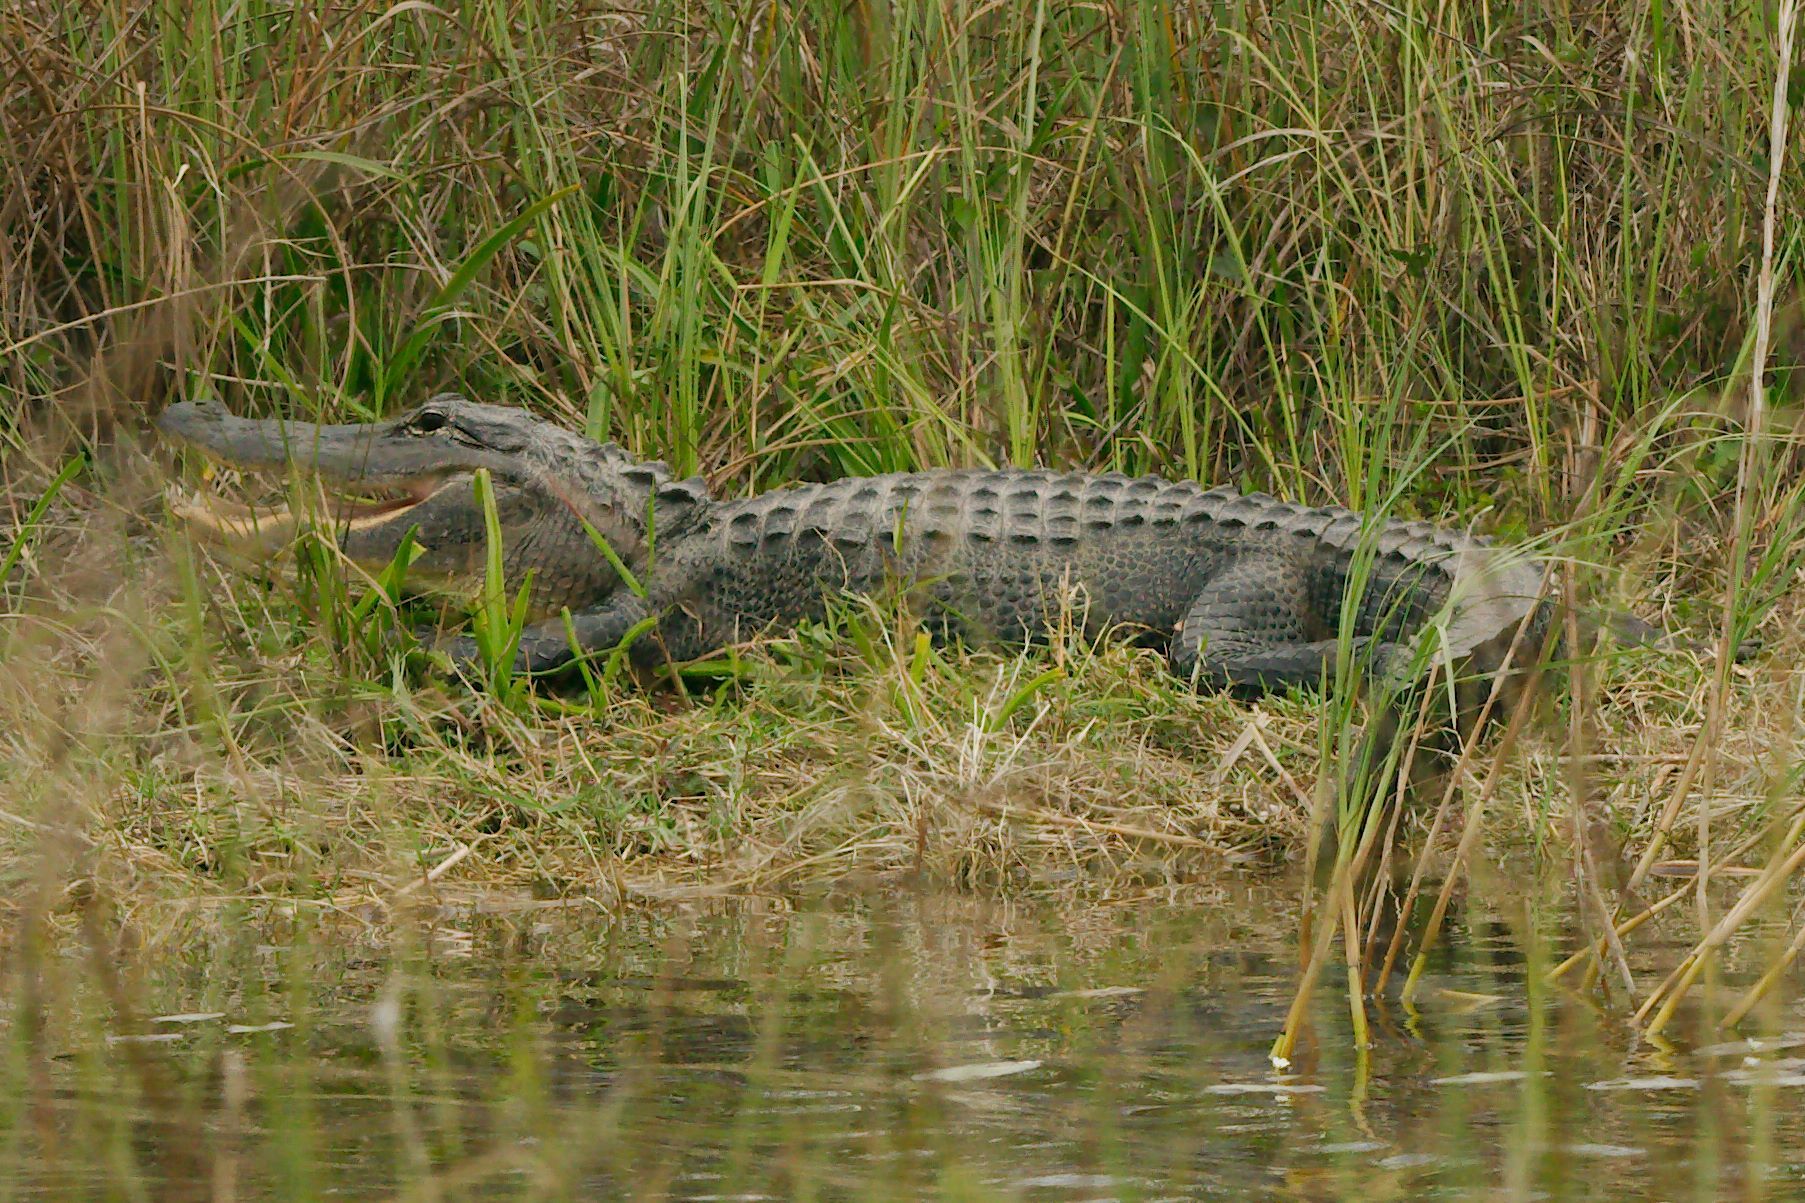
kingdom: Animalia
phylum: Chordata
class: Crocodylia
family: Alligatoridae
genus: Alligator
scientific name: Alligator mississippiensis
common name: American alligator
